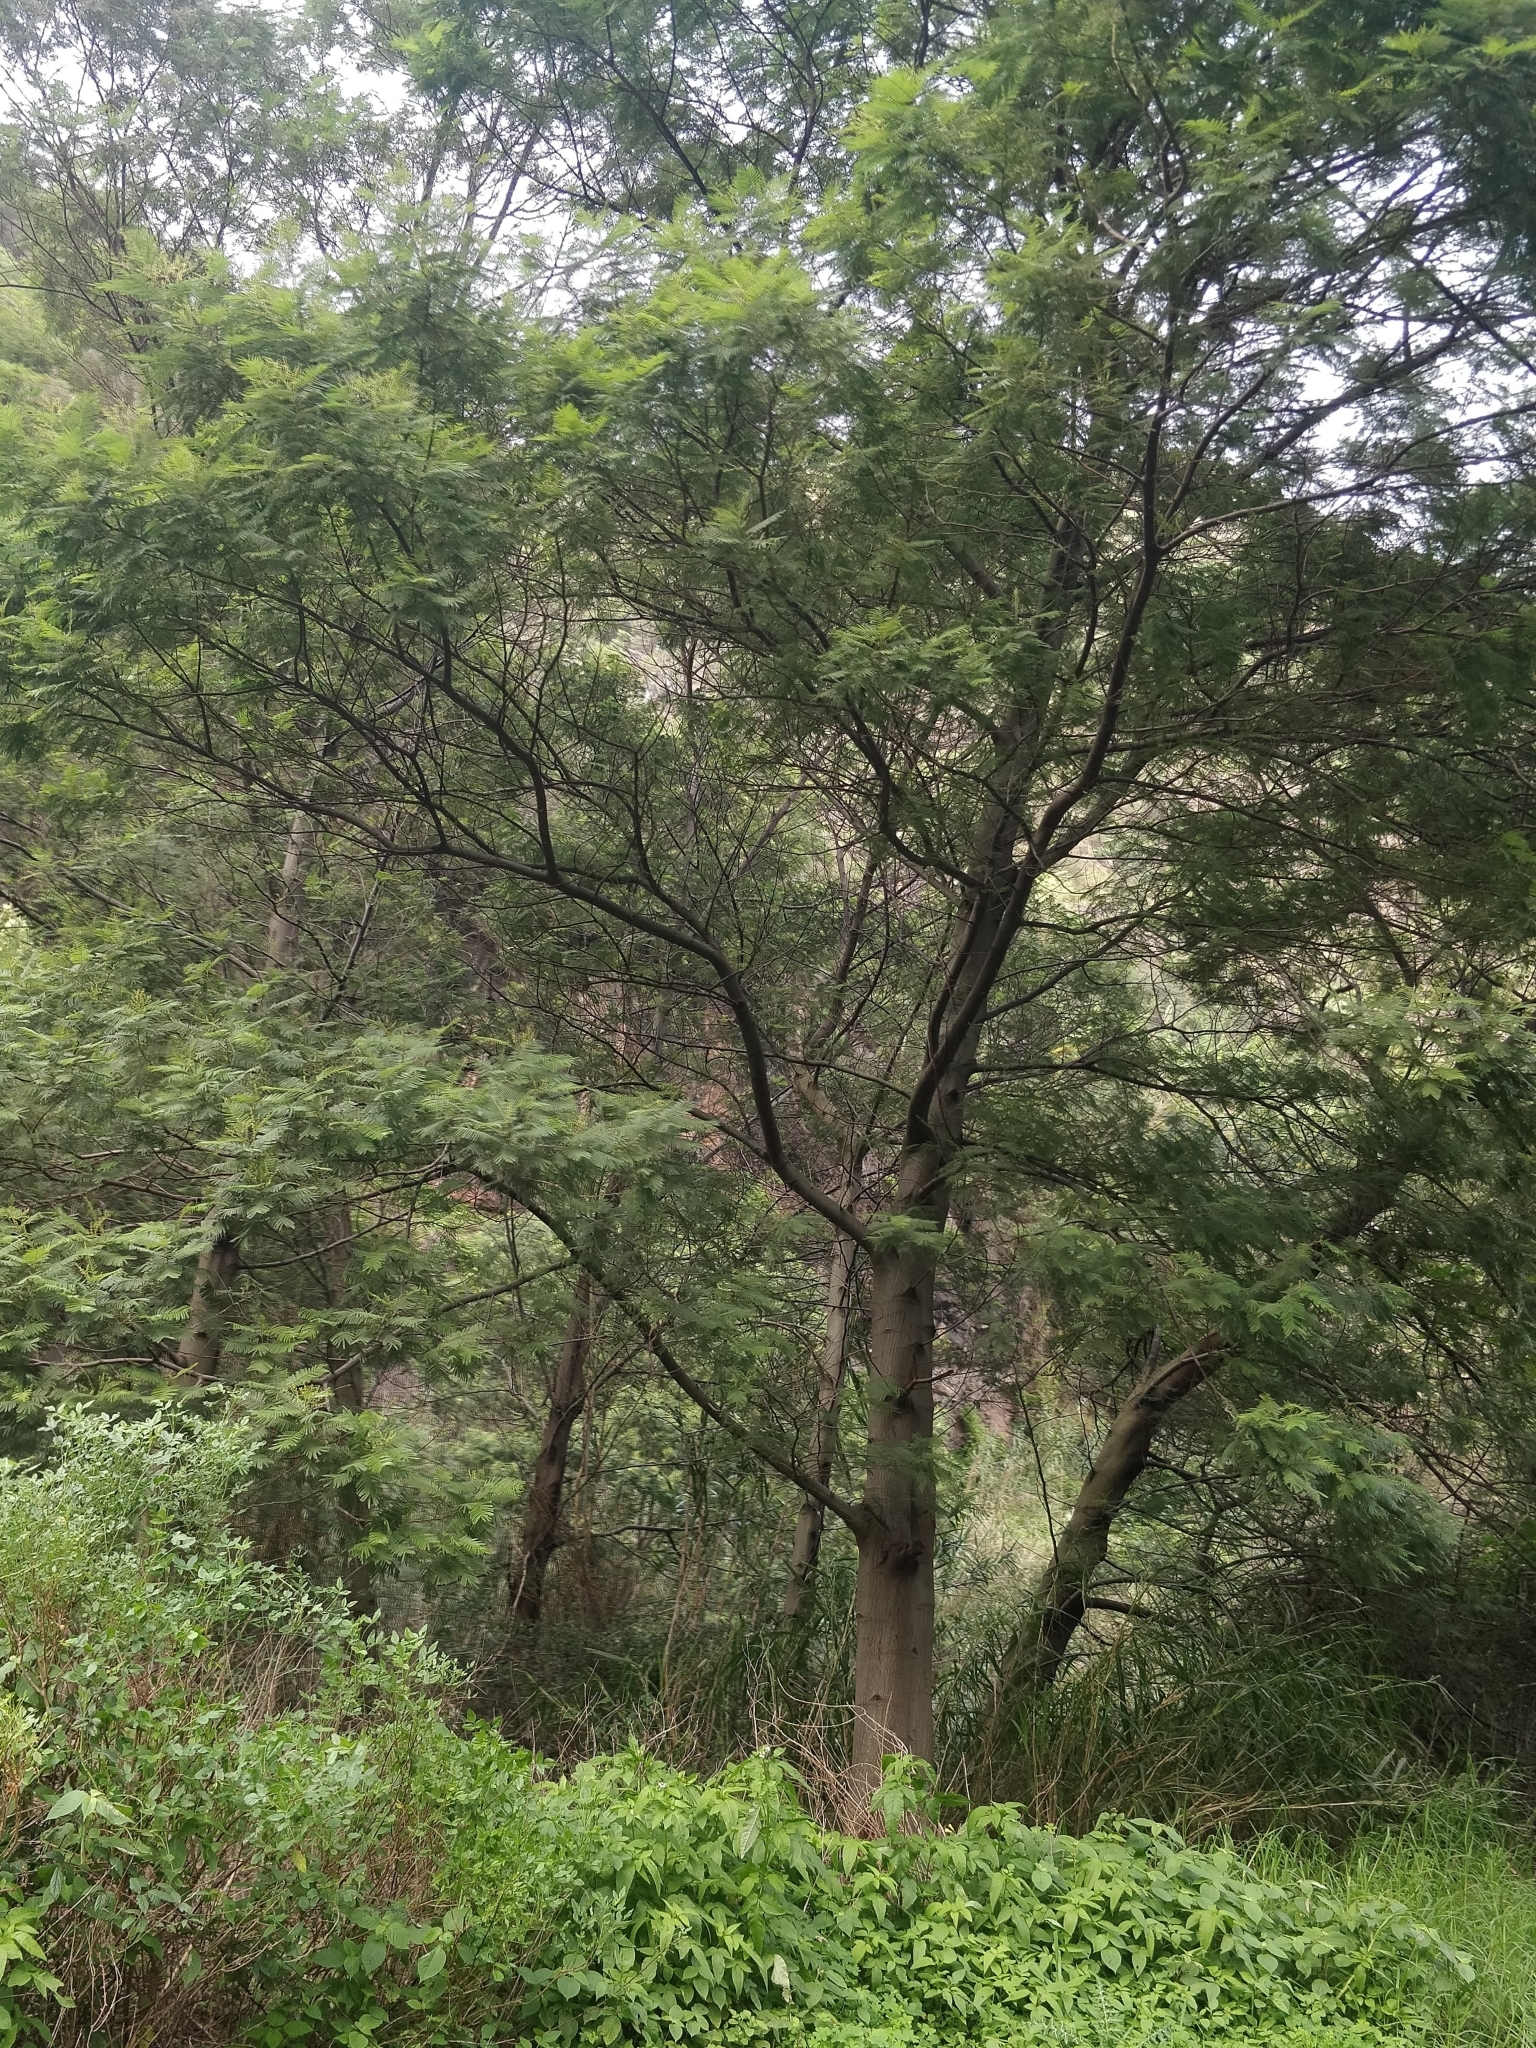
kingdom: Plantae
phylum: Tracheophyta
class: Magnoliopsida
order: Fabales
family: Fabaceae
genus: Acacia
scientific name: Acacia mearnsii
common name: Black wattle
